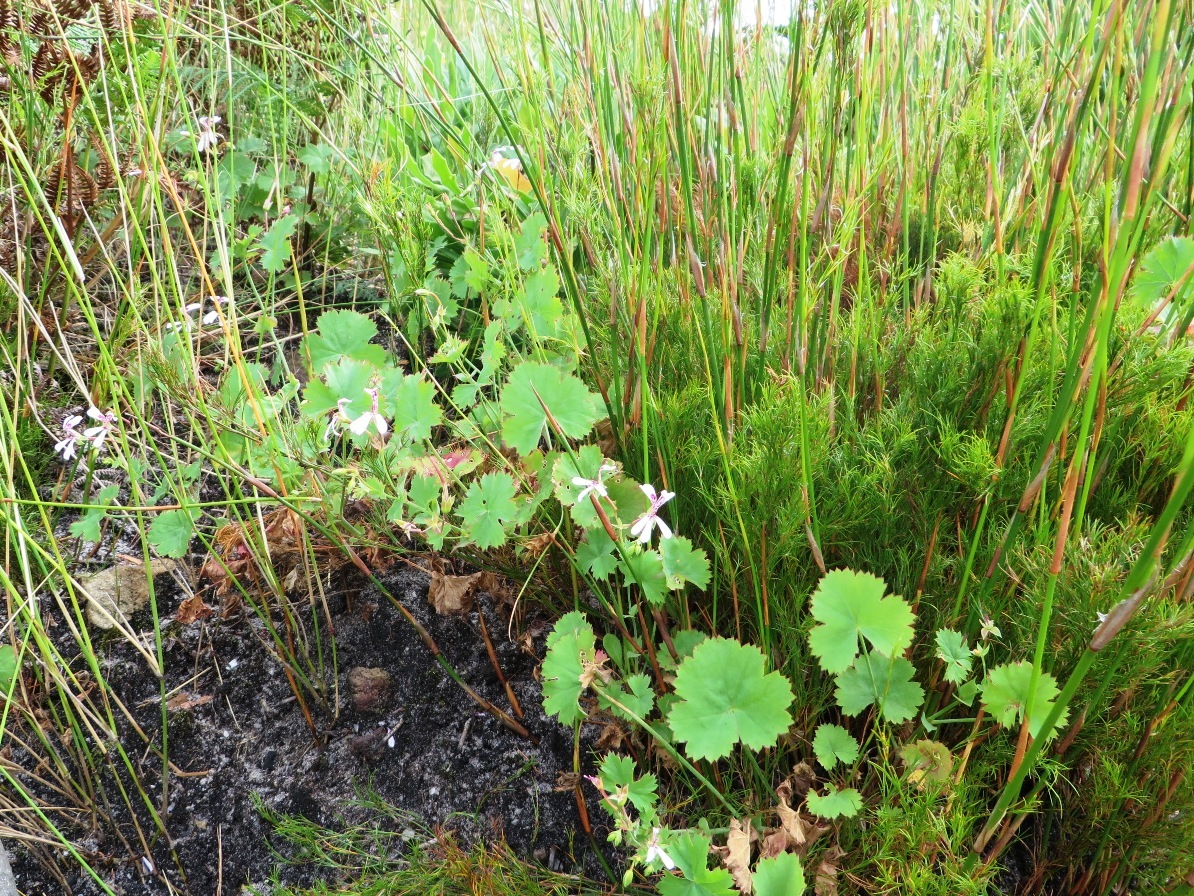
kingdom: Plantae
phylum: Tracheophyta
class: Magnoliopsida
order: Geraniales
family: Geraniaceae
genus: Pelargonium
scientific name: Pelargonium patulum
